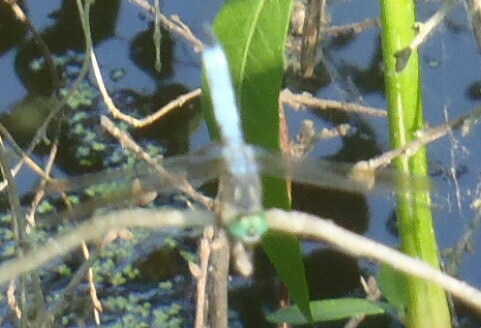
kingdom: Animalia
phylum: Arthropoda
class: Insecta
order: Odonata
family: Libellulidae
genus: Pachydiplax
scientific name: Pachydiplax longipennis
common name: Blue dasher
